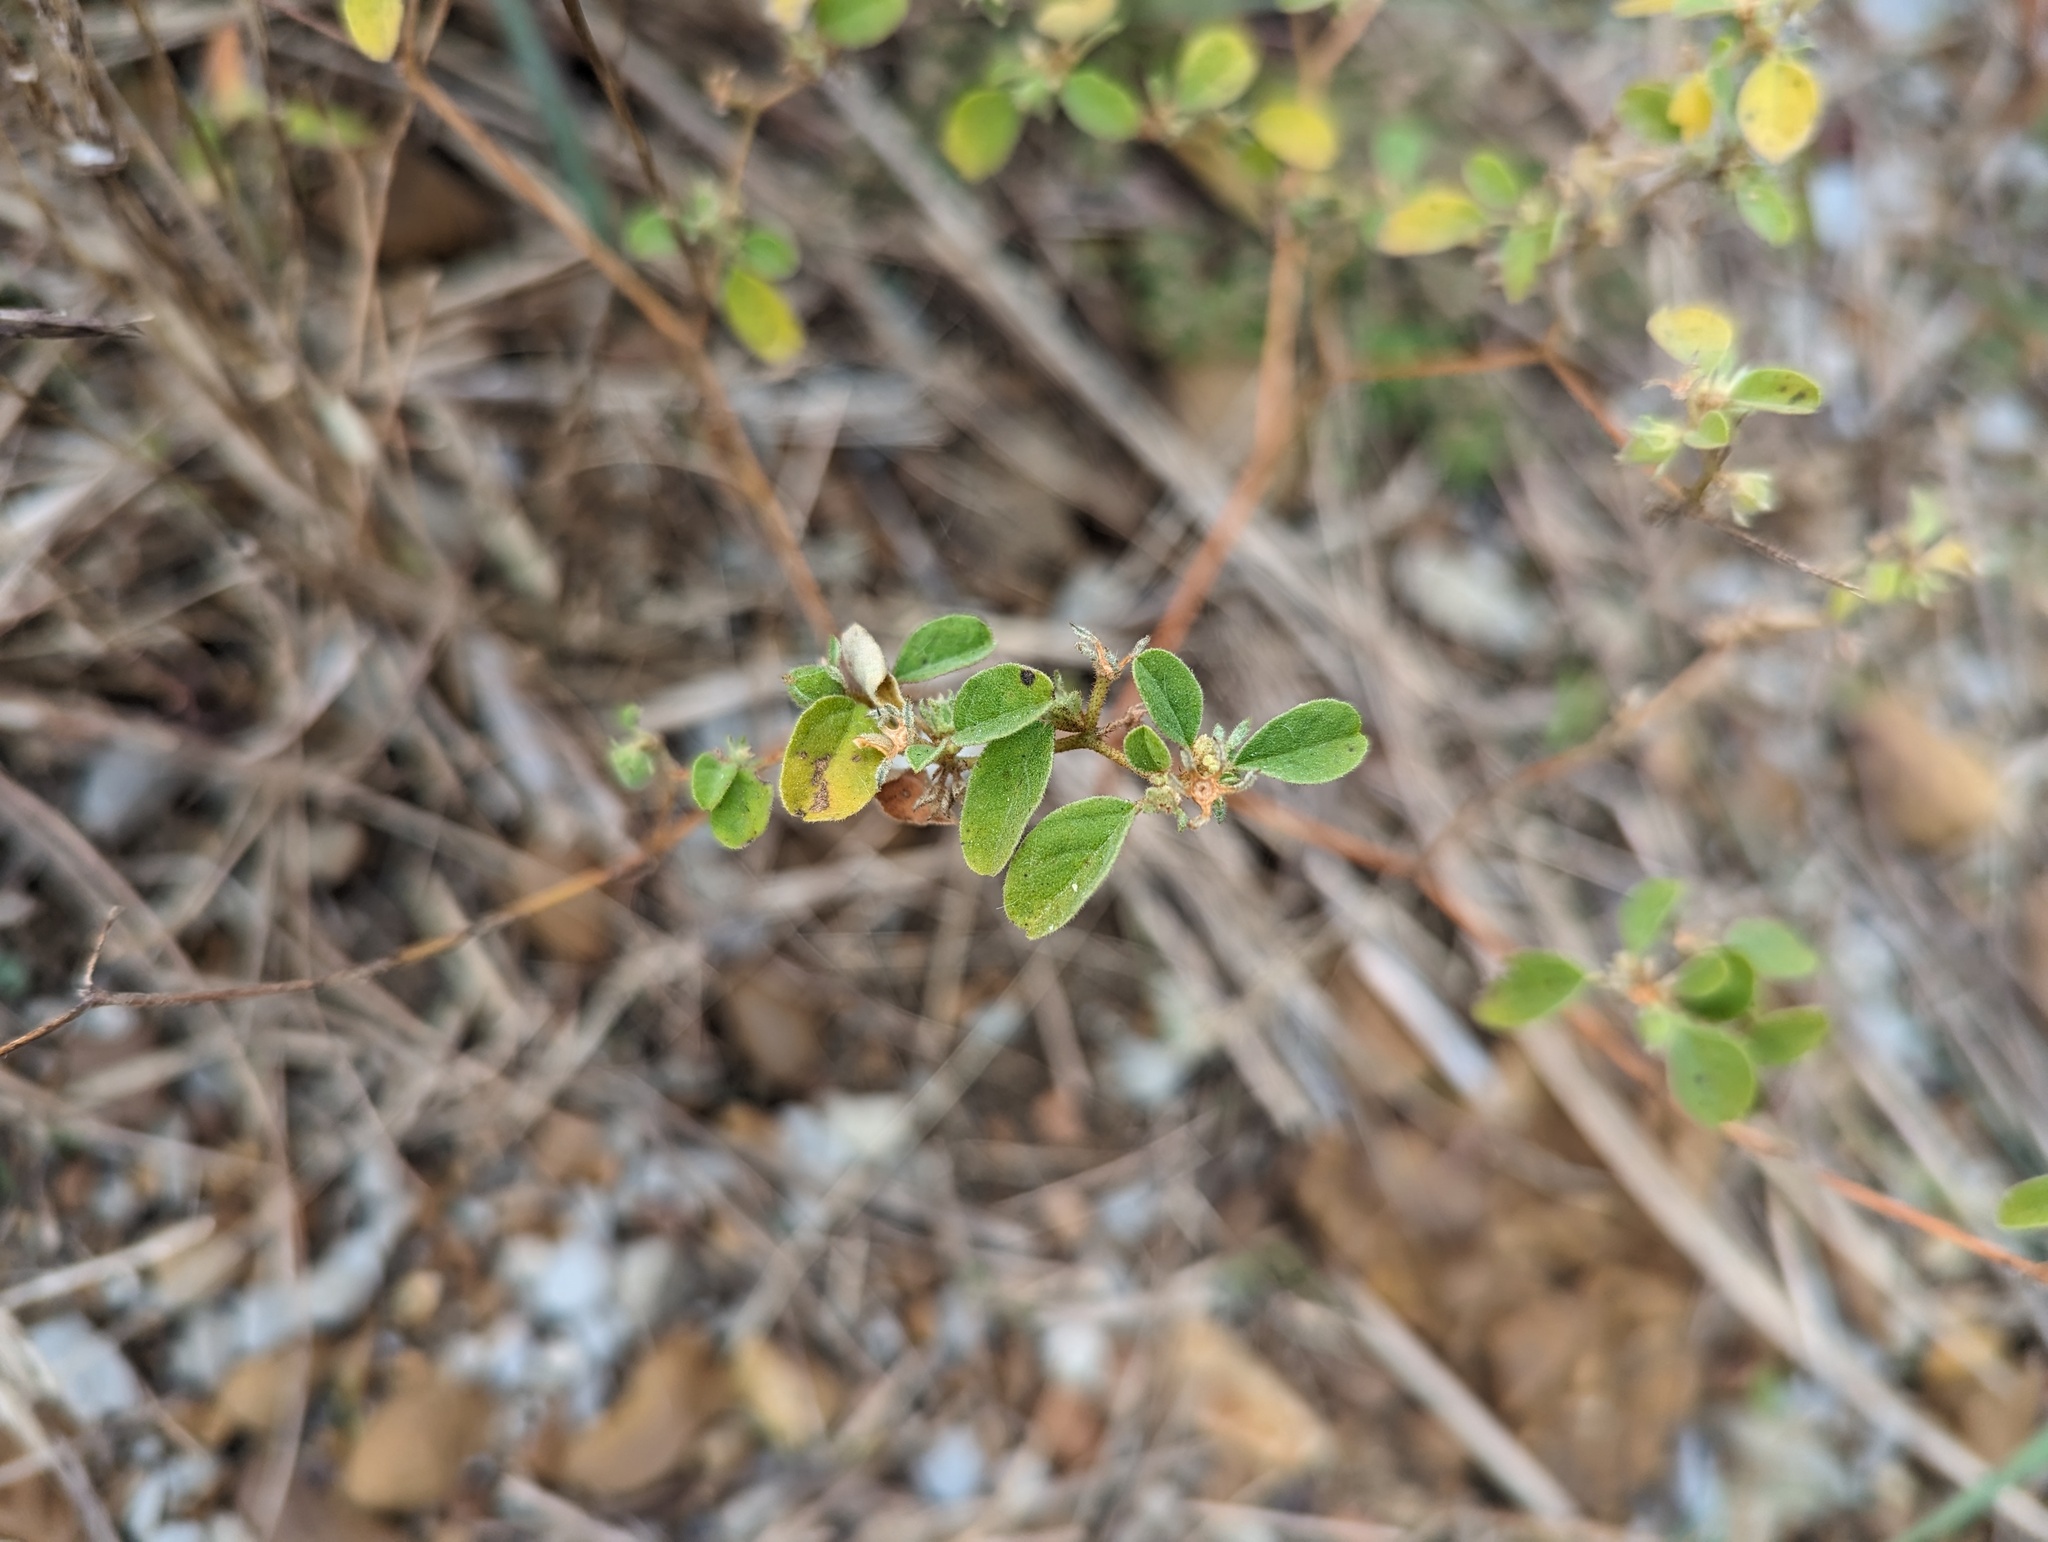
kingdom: Plantae
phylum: Tracheophyta
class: Magnoliopsida
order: Malpighiales
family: Euphorbiaceae
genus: Croton
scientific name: Croton monanthogynus
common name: One-seed croton
